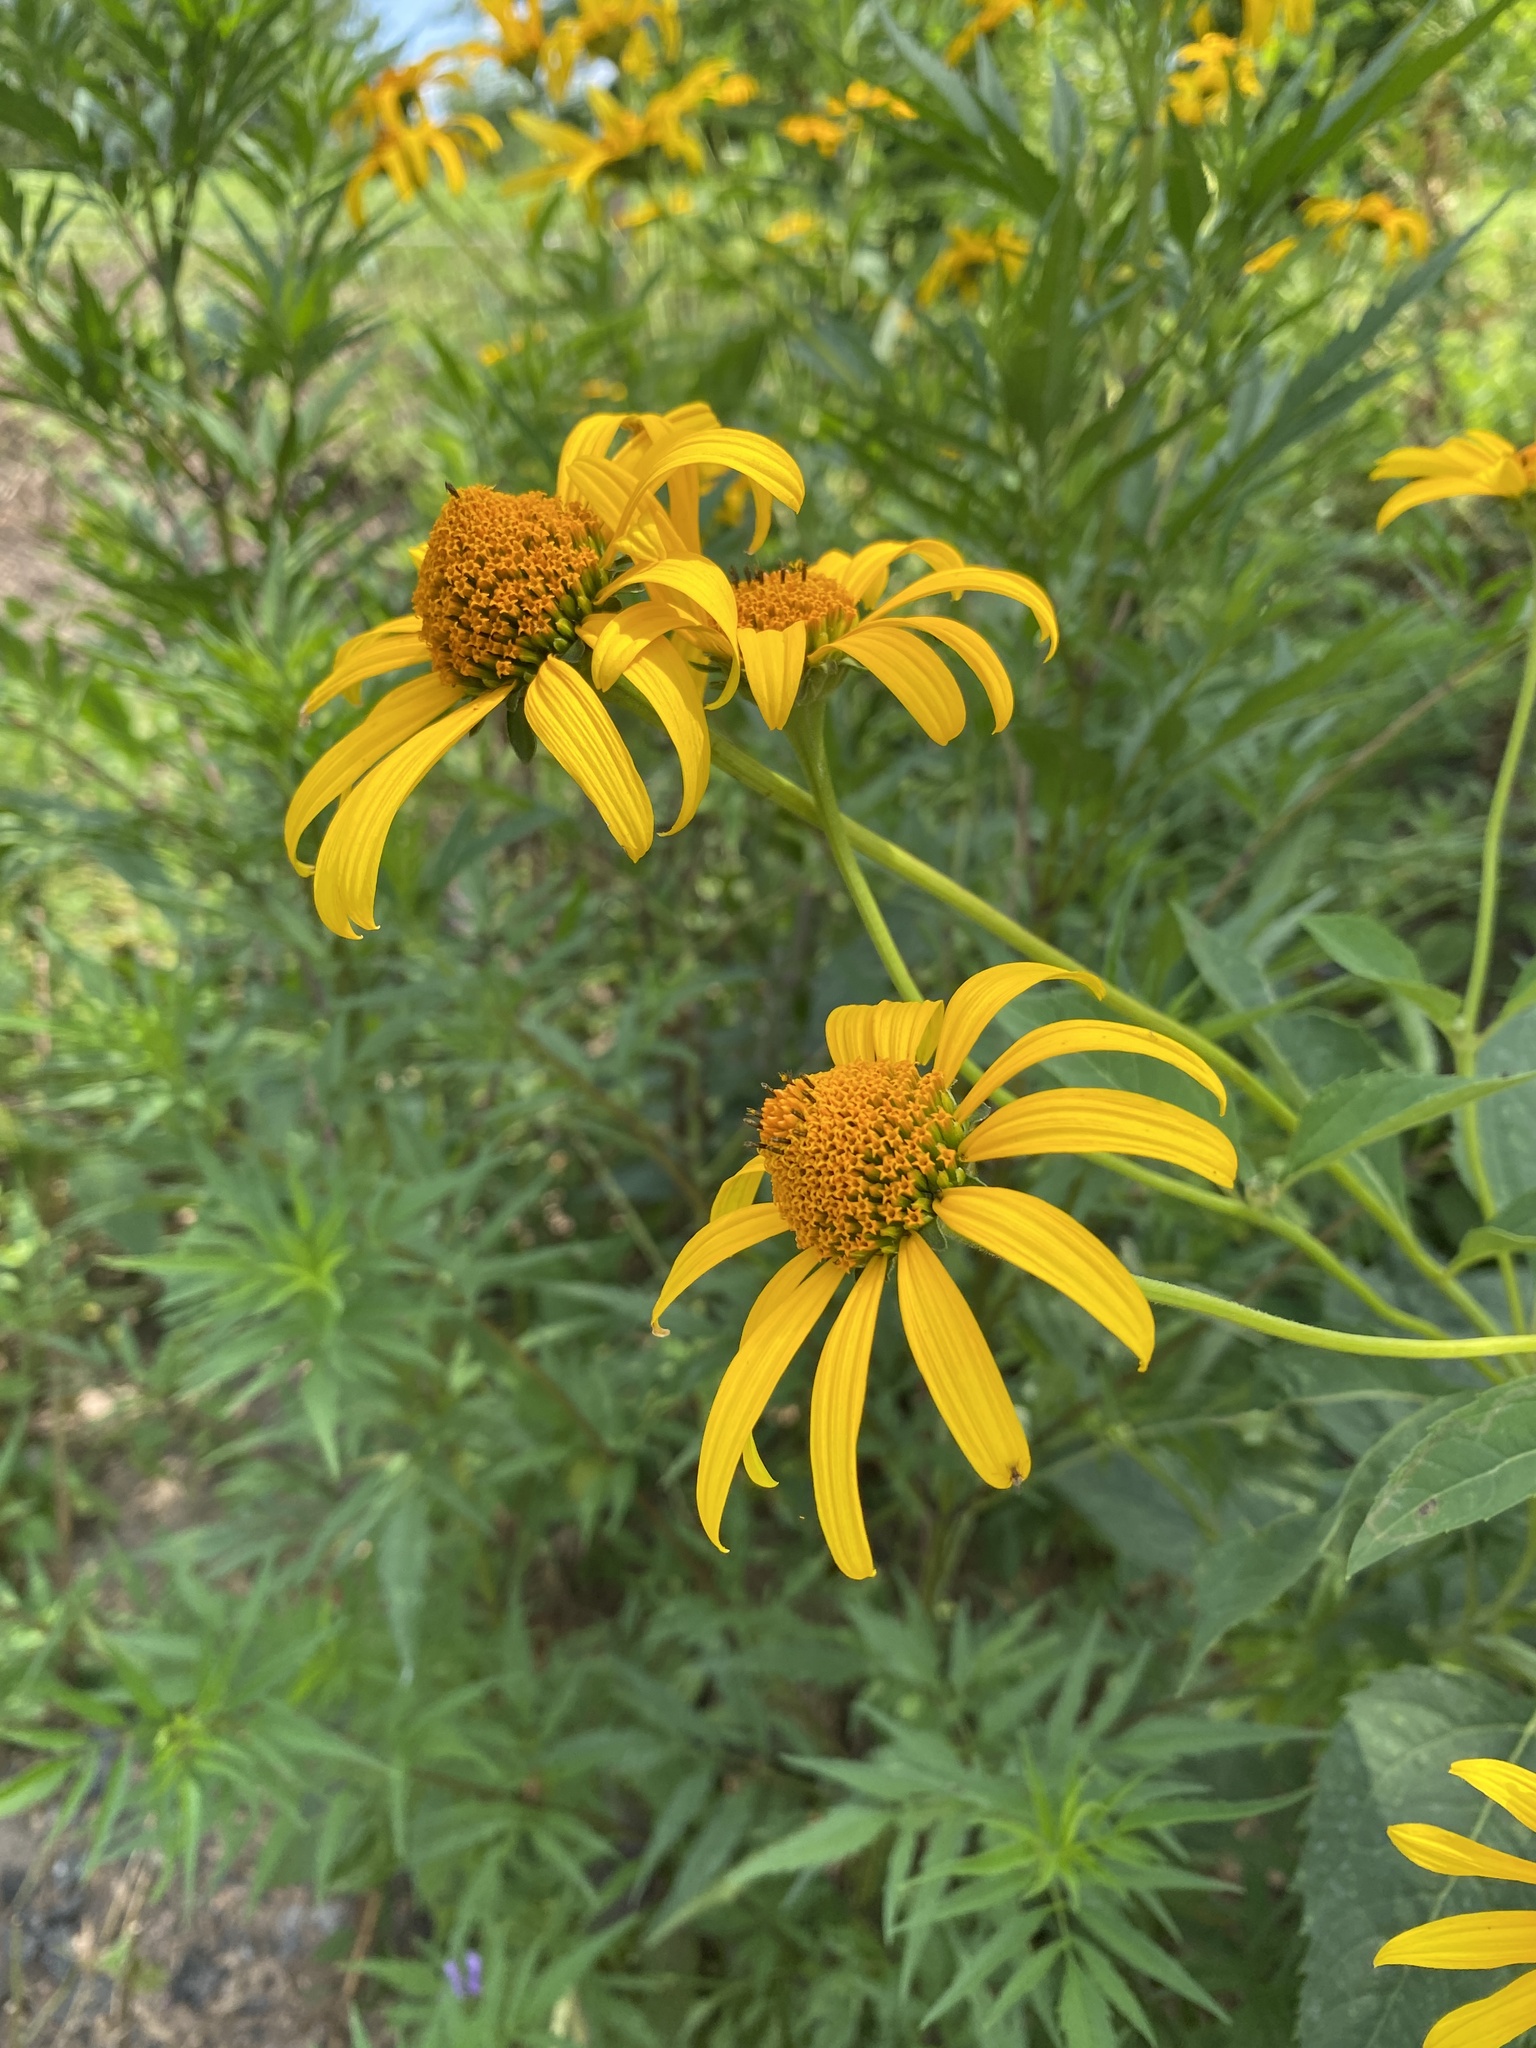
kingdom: Plantae
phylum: Tracheophyta
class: Magnoliopsida
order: Asterales
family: Asteraceae
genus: Heliopsis
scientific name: Heliopsis helianthoides
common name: False sunflower
